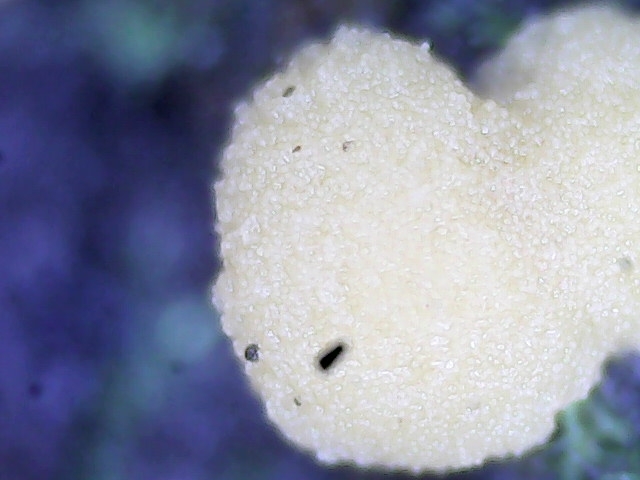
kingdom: Fungi
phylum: Ascomycota
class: Pezizomycetes
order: Pezizales
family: Pyronemataceae
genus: Sphaerosporium
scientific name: Sphaerosporium lignatile
